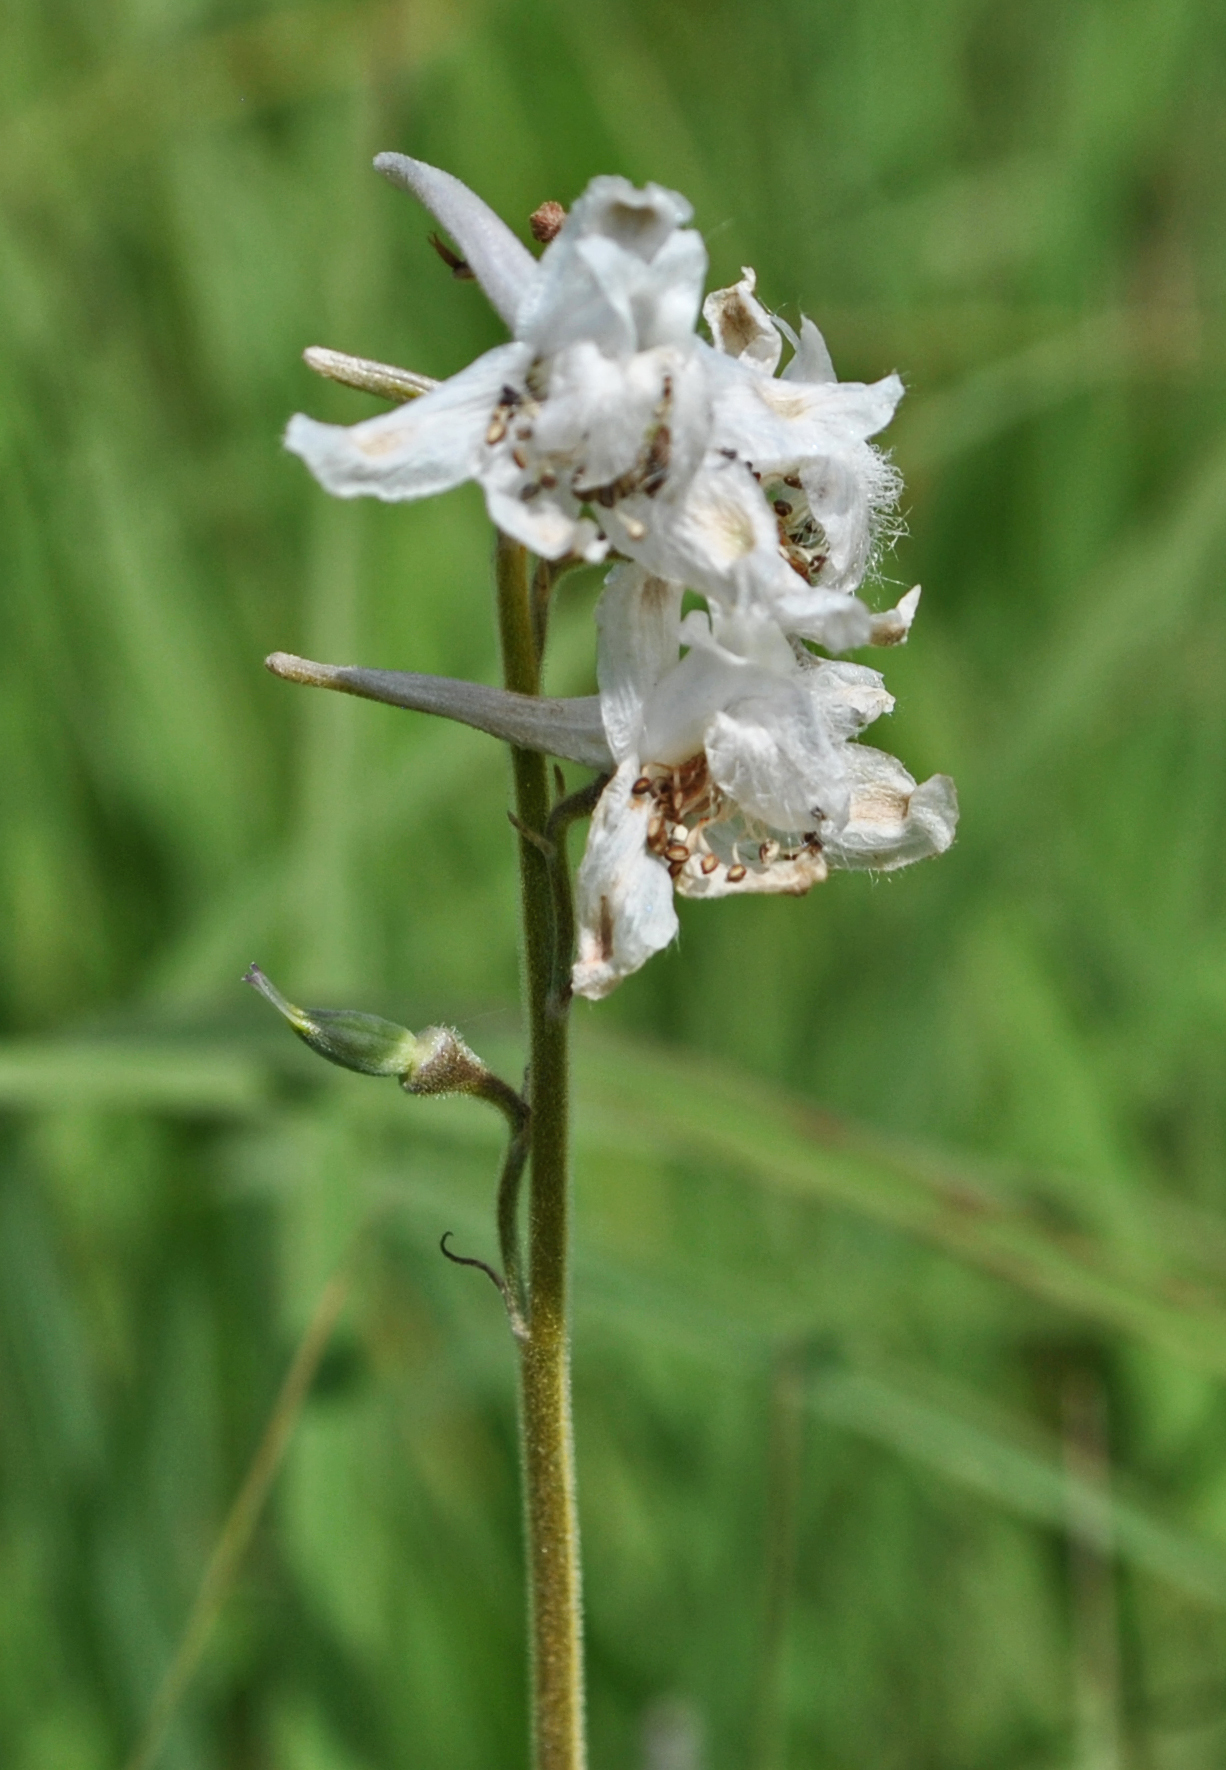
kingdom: Plantae
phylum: Tracheophyta
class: Magnoliopsida
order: Ranunculales
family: Ranunculaceae
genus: Delphinium
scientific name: Delphinium carolinianum
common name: Carolina larkspur
